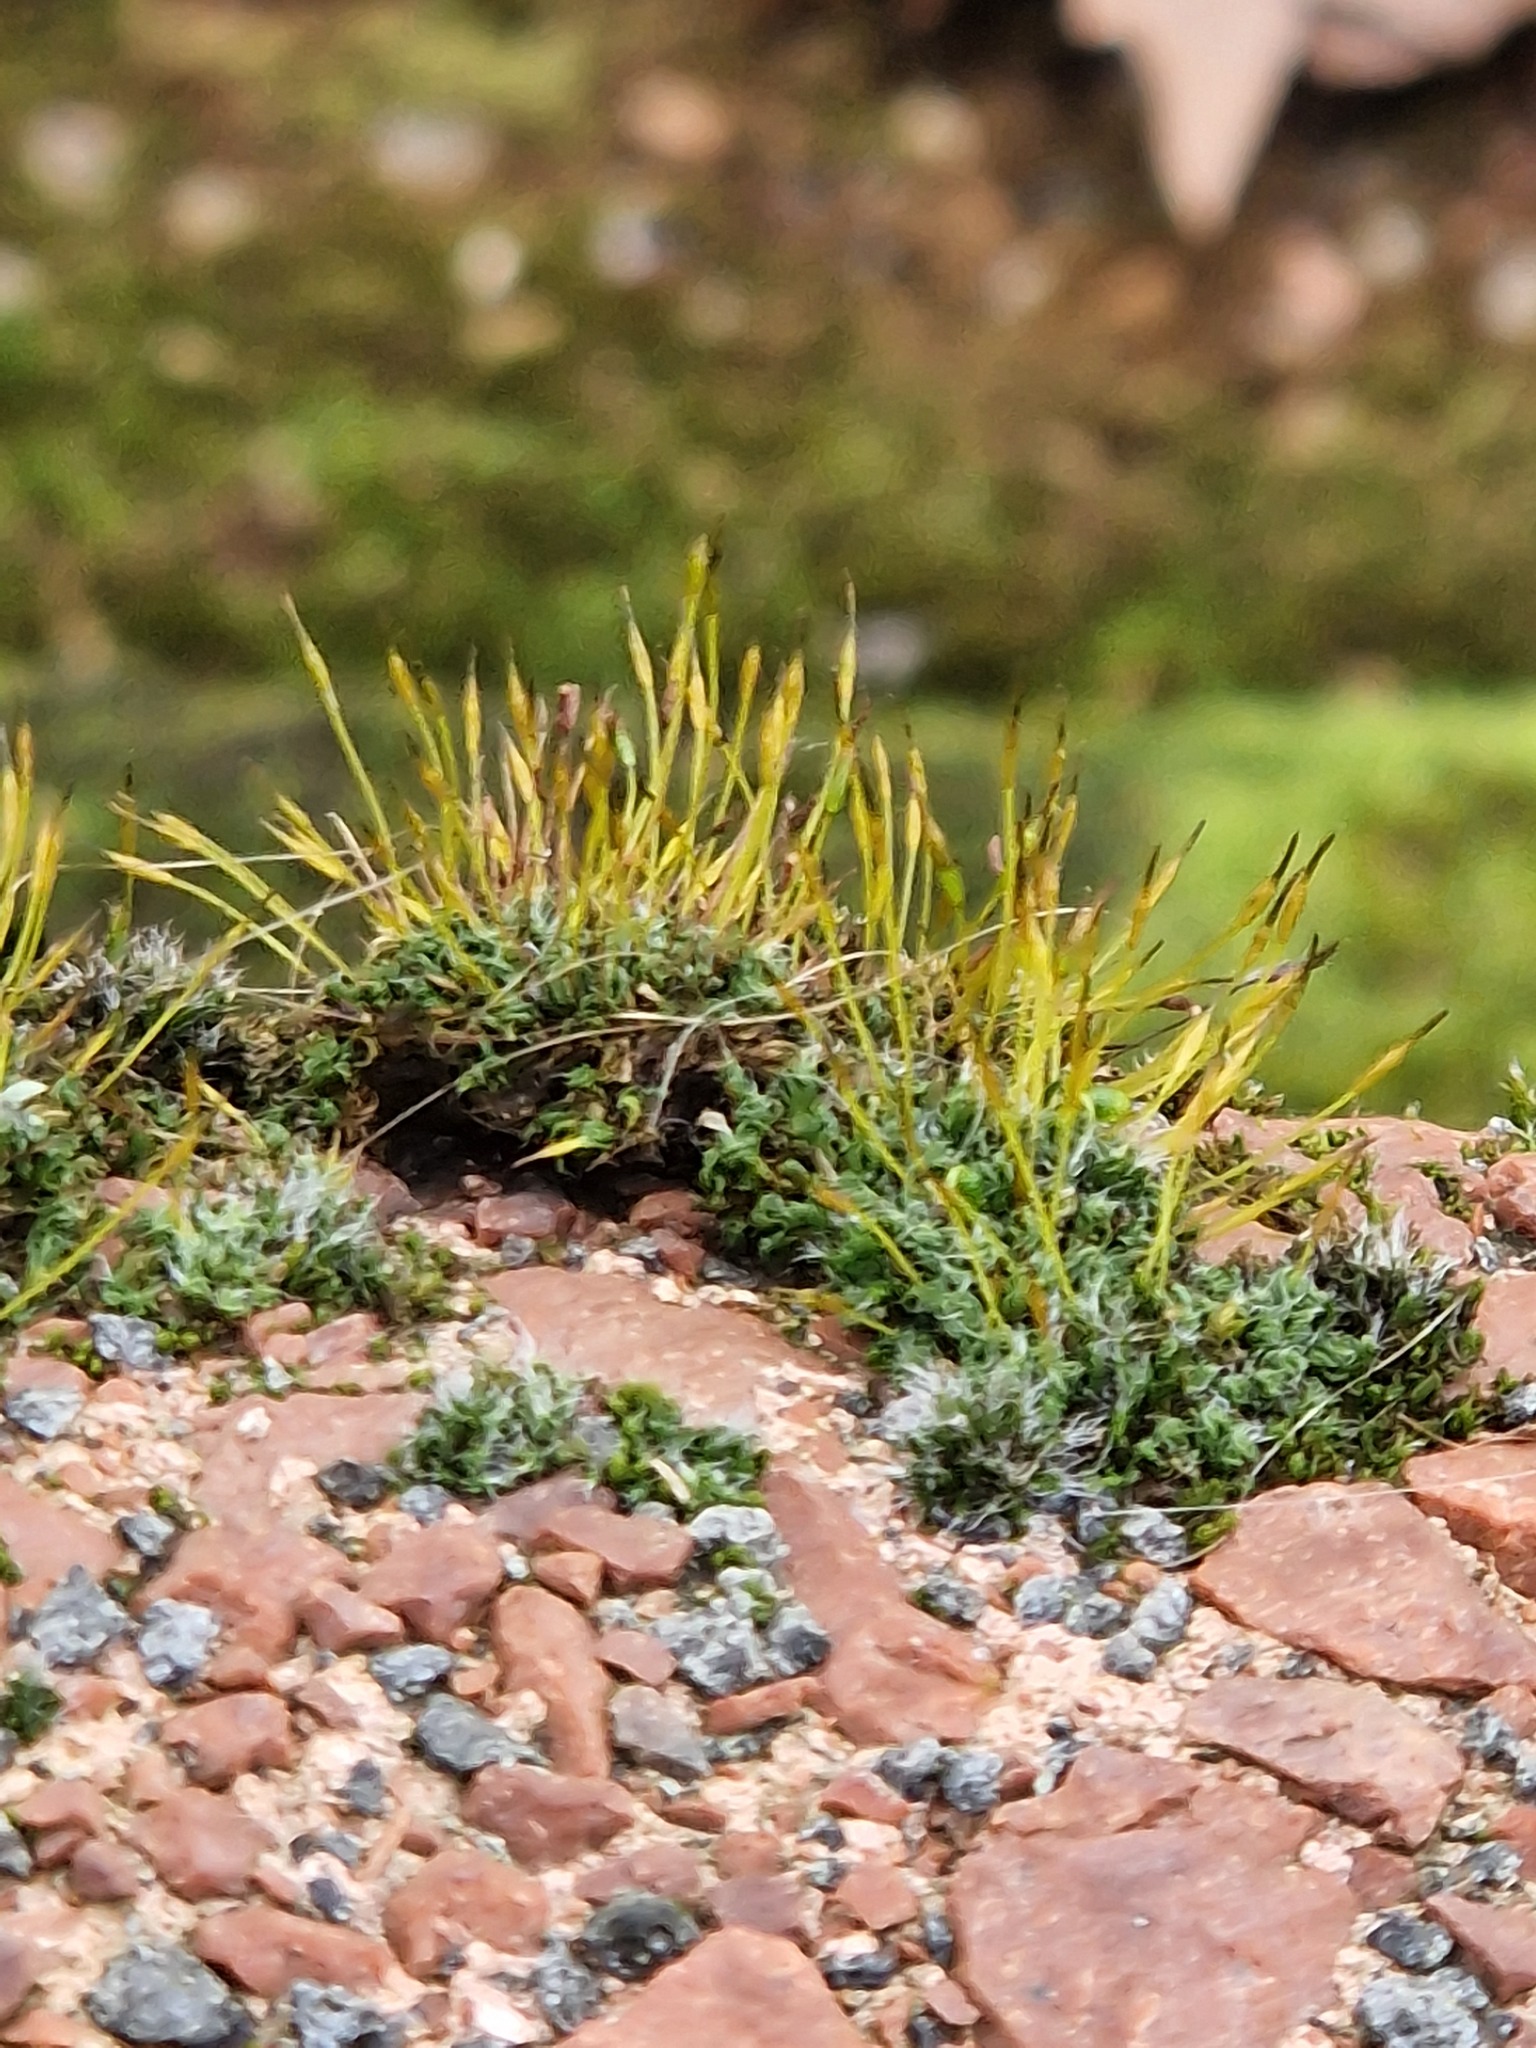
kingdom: Plantae
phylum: Bryophyta
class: Bryopsida
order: Pottiales
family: Pottiaceae
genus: Tortula
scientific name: Tortula muralis
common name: Wall screw-moss
